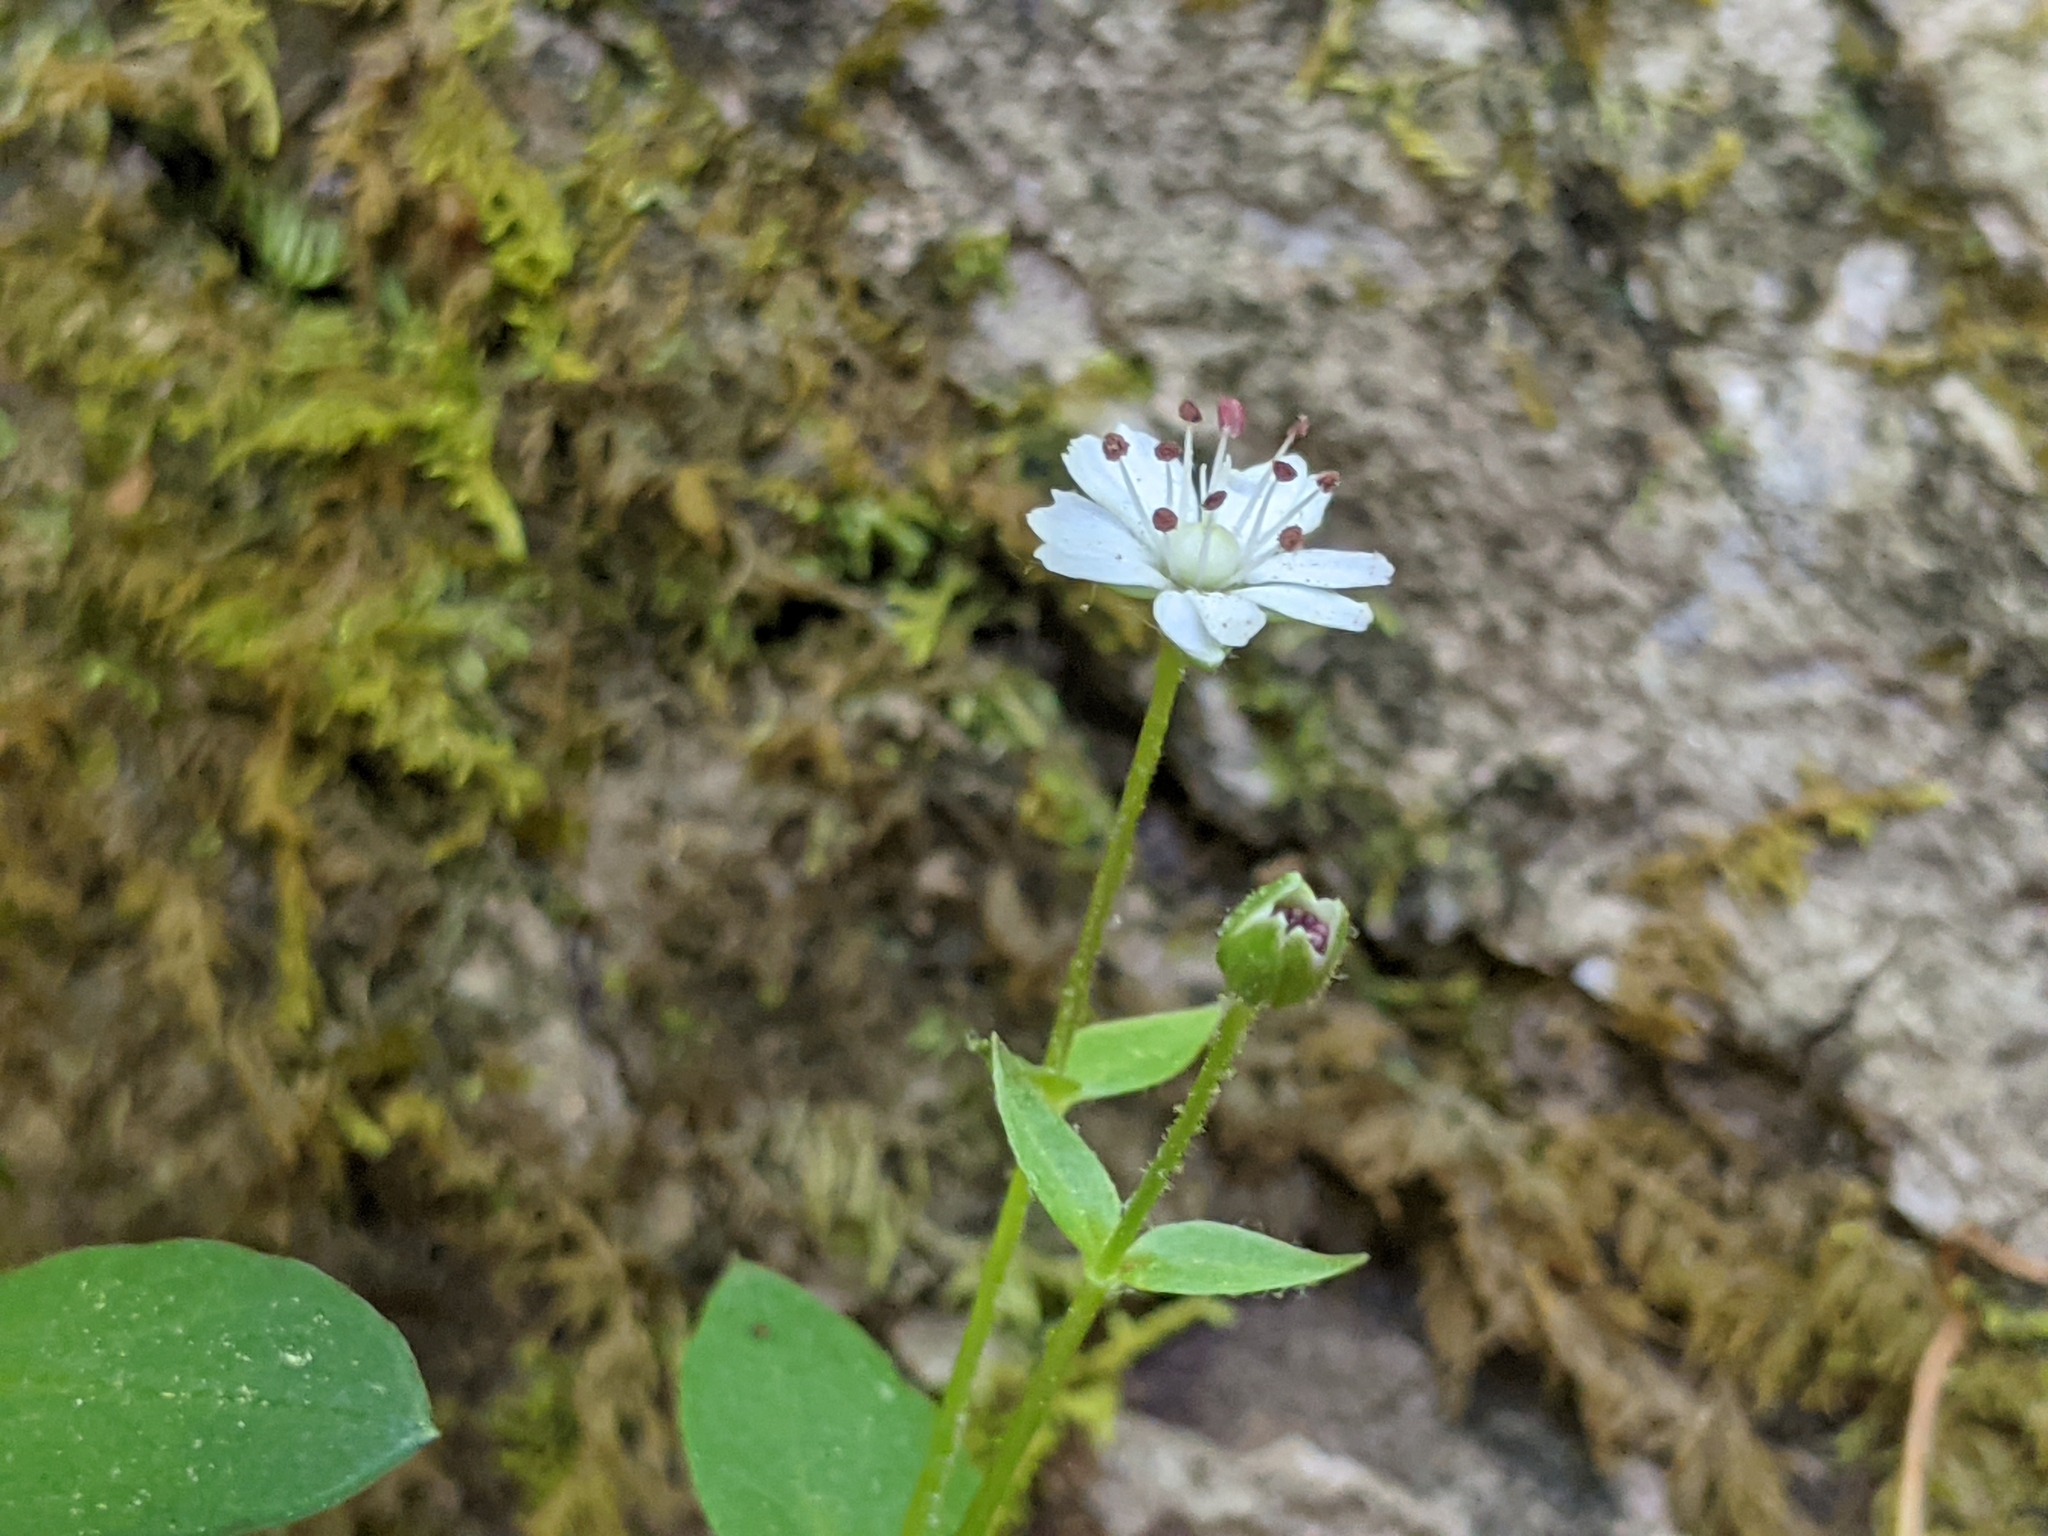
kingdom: Plantae
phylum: Tracheophyta
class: Magnoliopsida
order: Caryophyllales
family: Caryophyllaceae
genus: Stellaria
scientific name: Stellaria pubera
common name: Star chickweed
